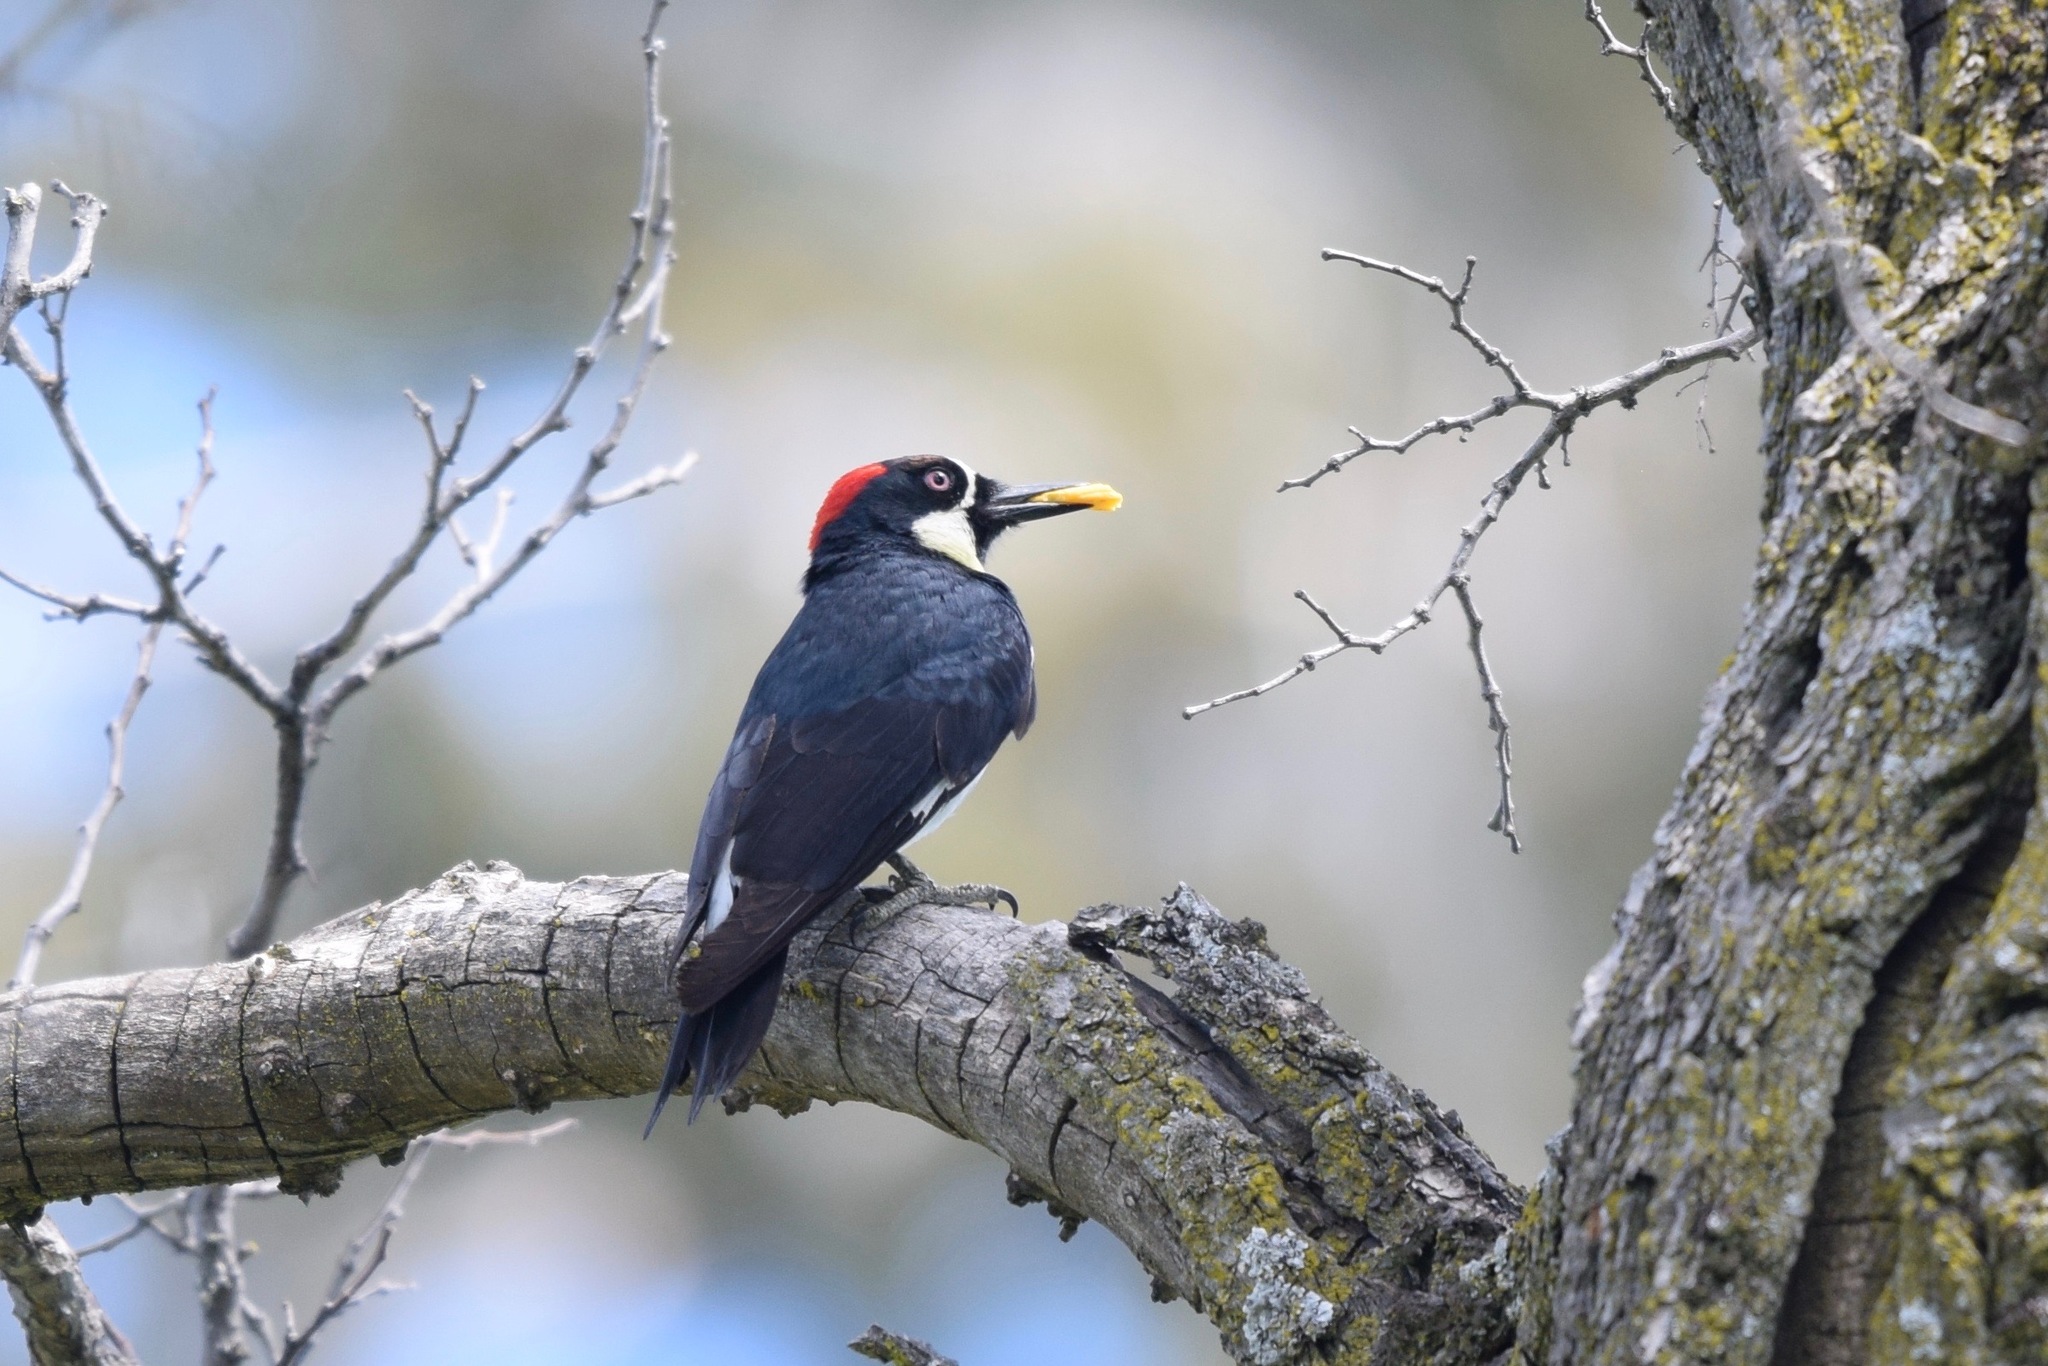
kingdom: Animalia
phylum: Chordata
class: Aves
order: Piciformes
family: Picidae
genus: Melanerpes
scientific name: Melanerpes formicivorus
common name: Acorn woodpecker
